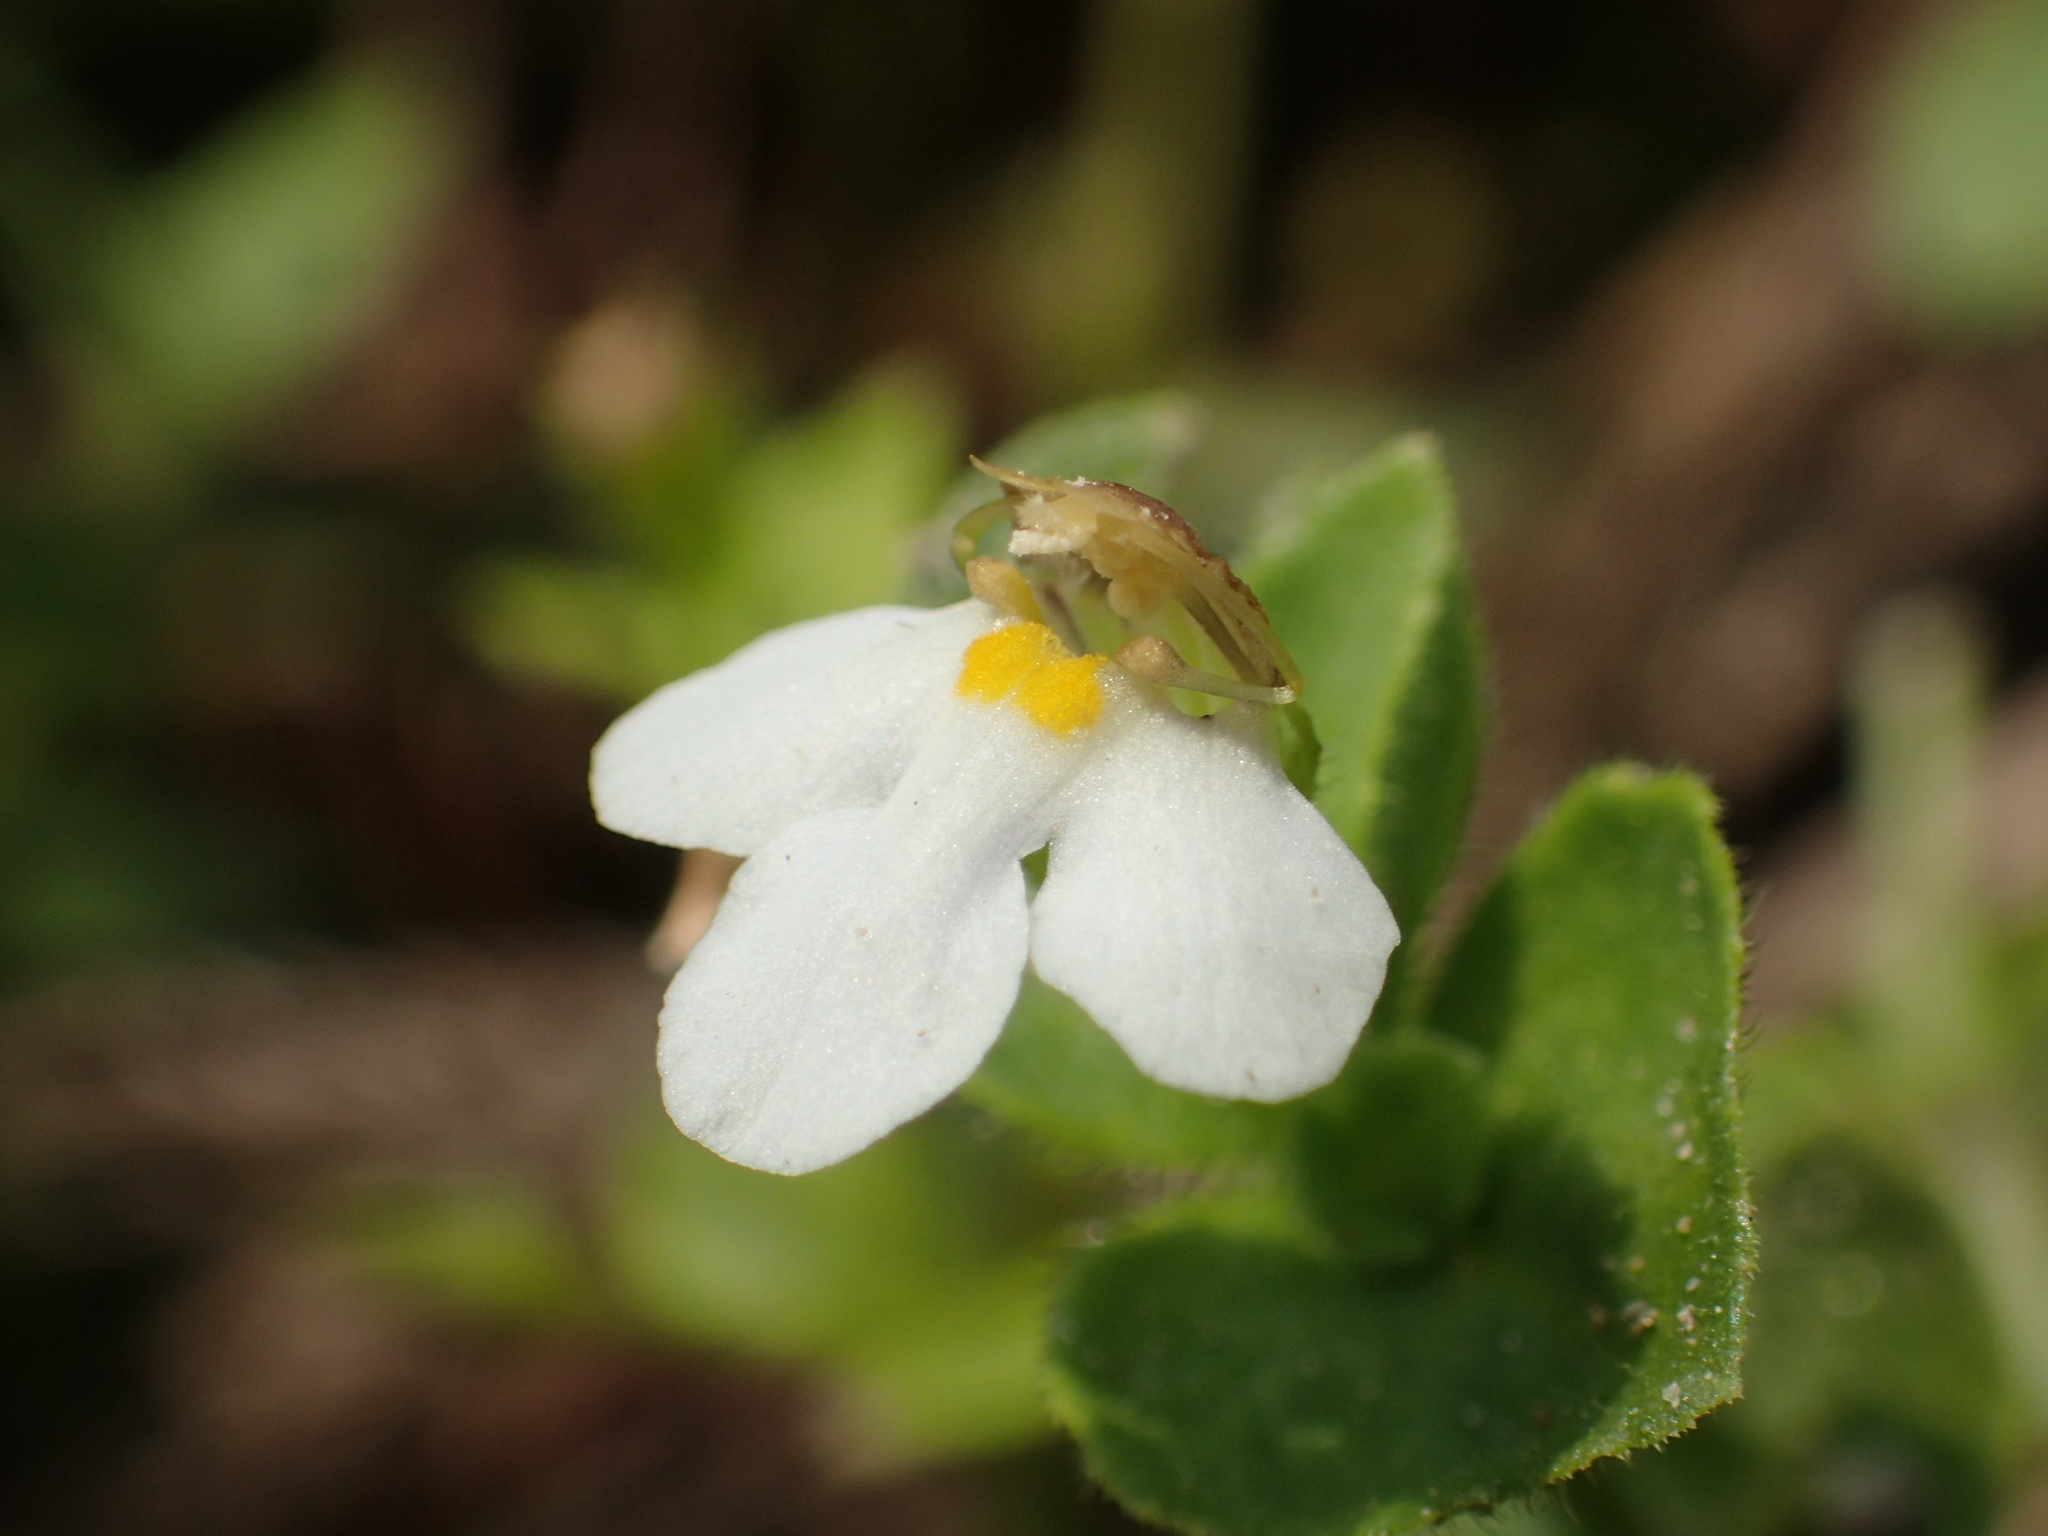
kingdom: Plantae
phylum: Tracheophyta
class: Magnoliopsida
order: Lamiales
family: Linderniaceae
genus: Yamazakia
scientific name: Yamazakia pusilla
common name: Tiny slitwort
